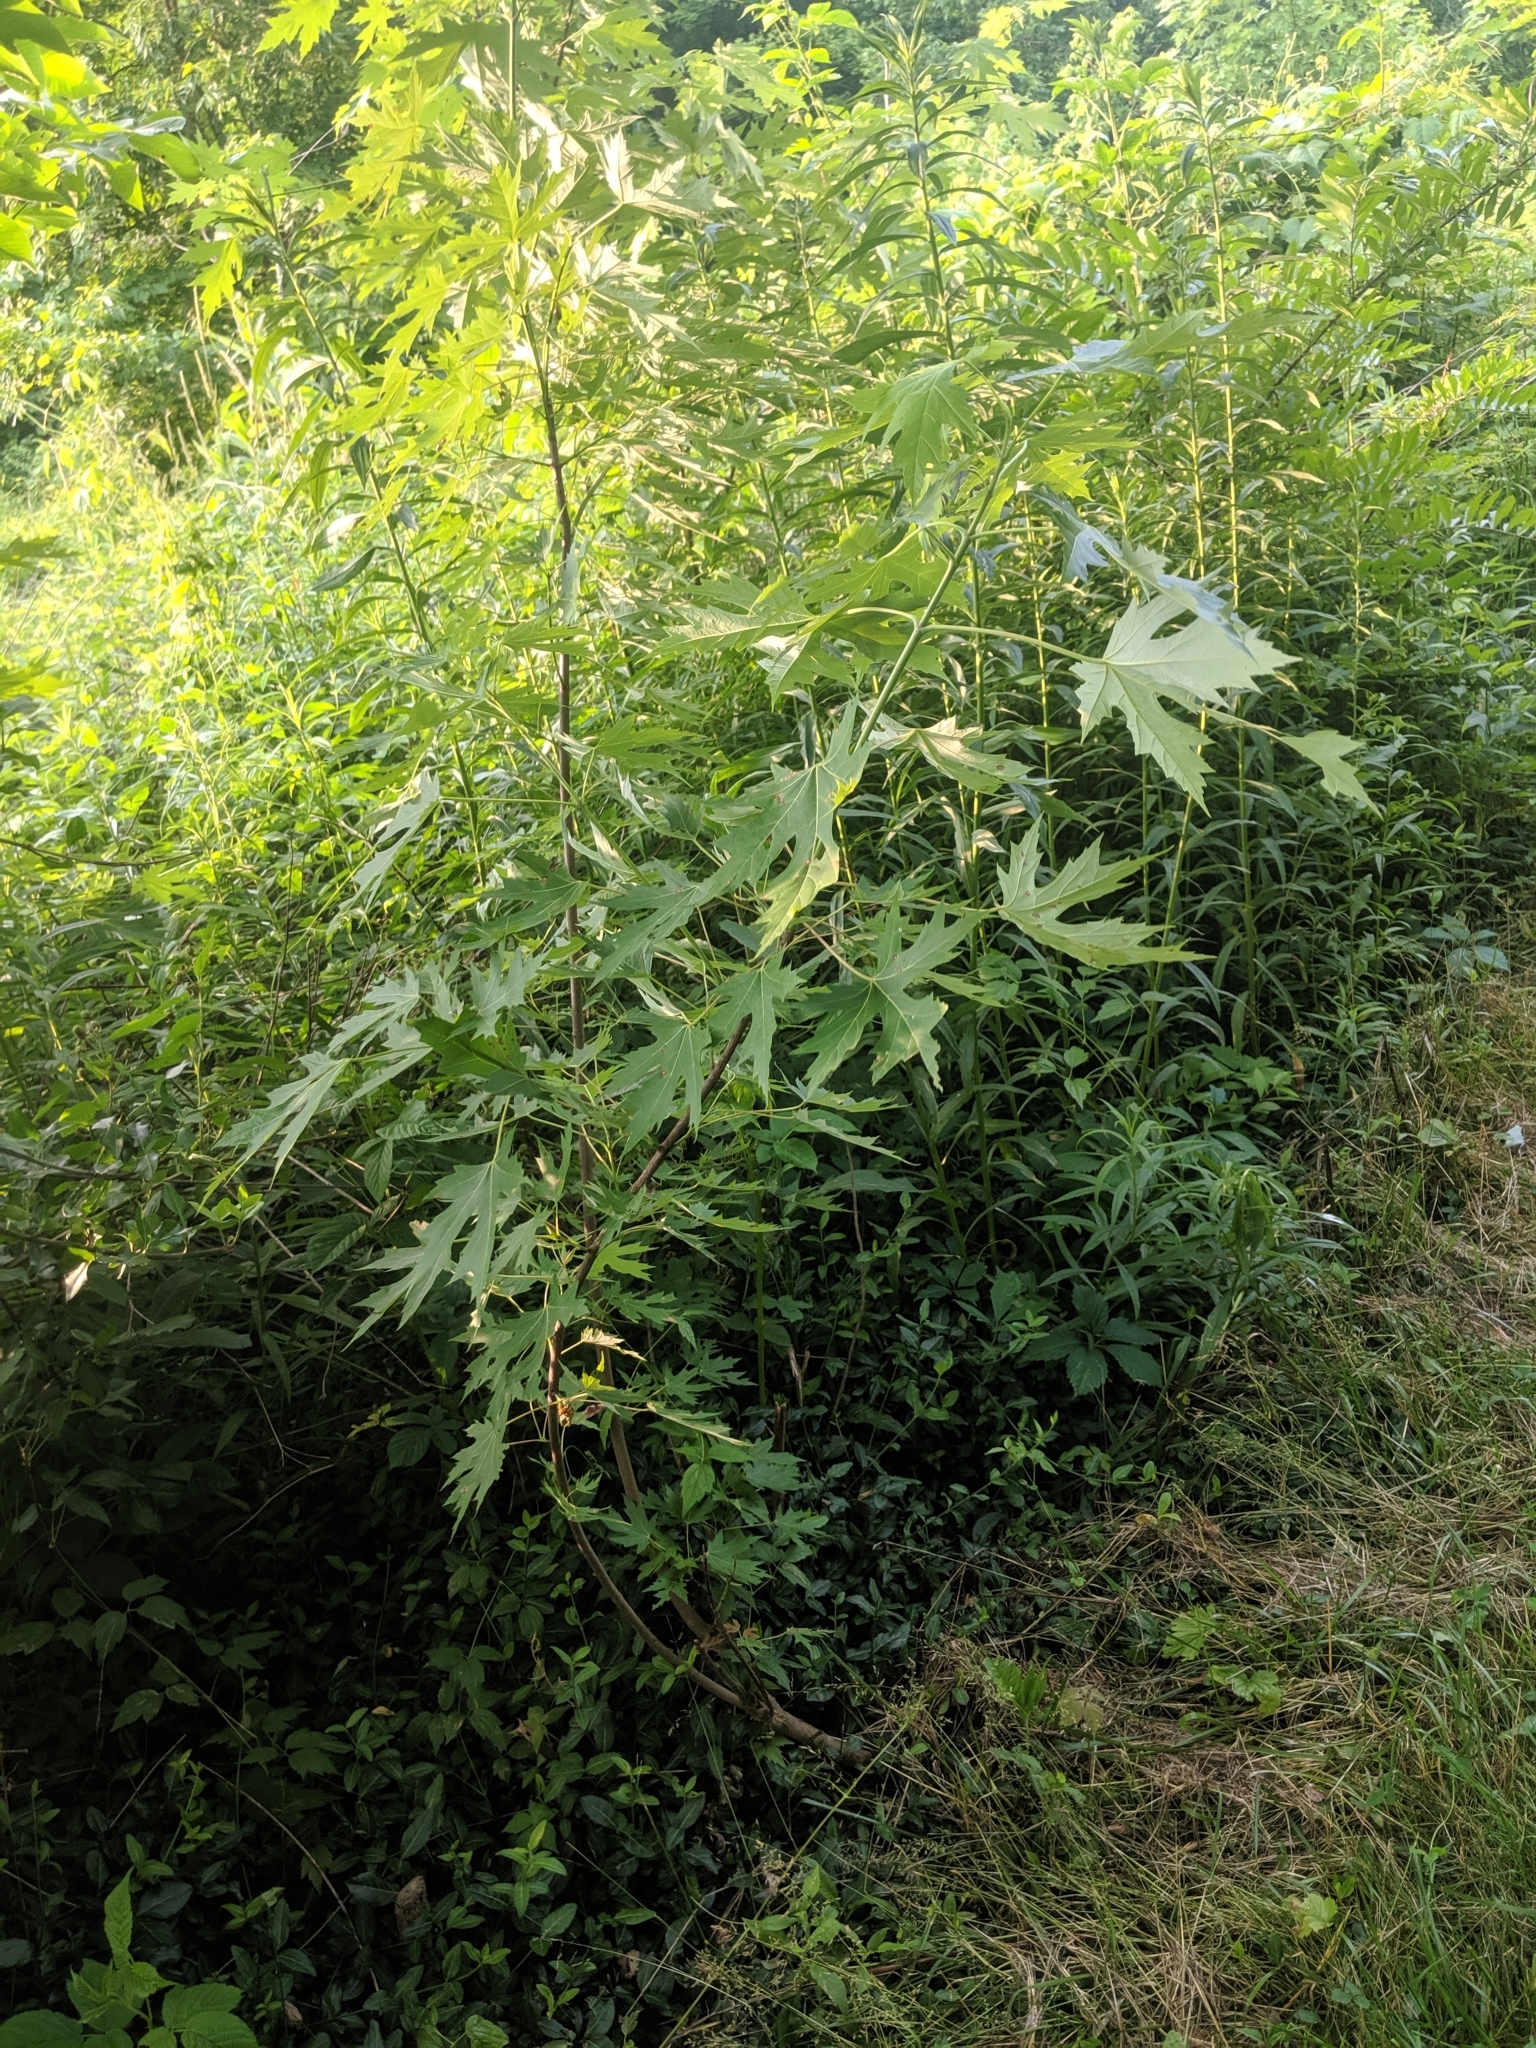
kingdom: Plantae
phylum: Tracheophyta
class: Magnoliopsida
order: Sapindales
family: Sapindaceae
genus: Acer
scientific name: Acer saccharinum
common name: Silver maple
